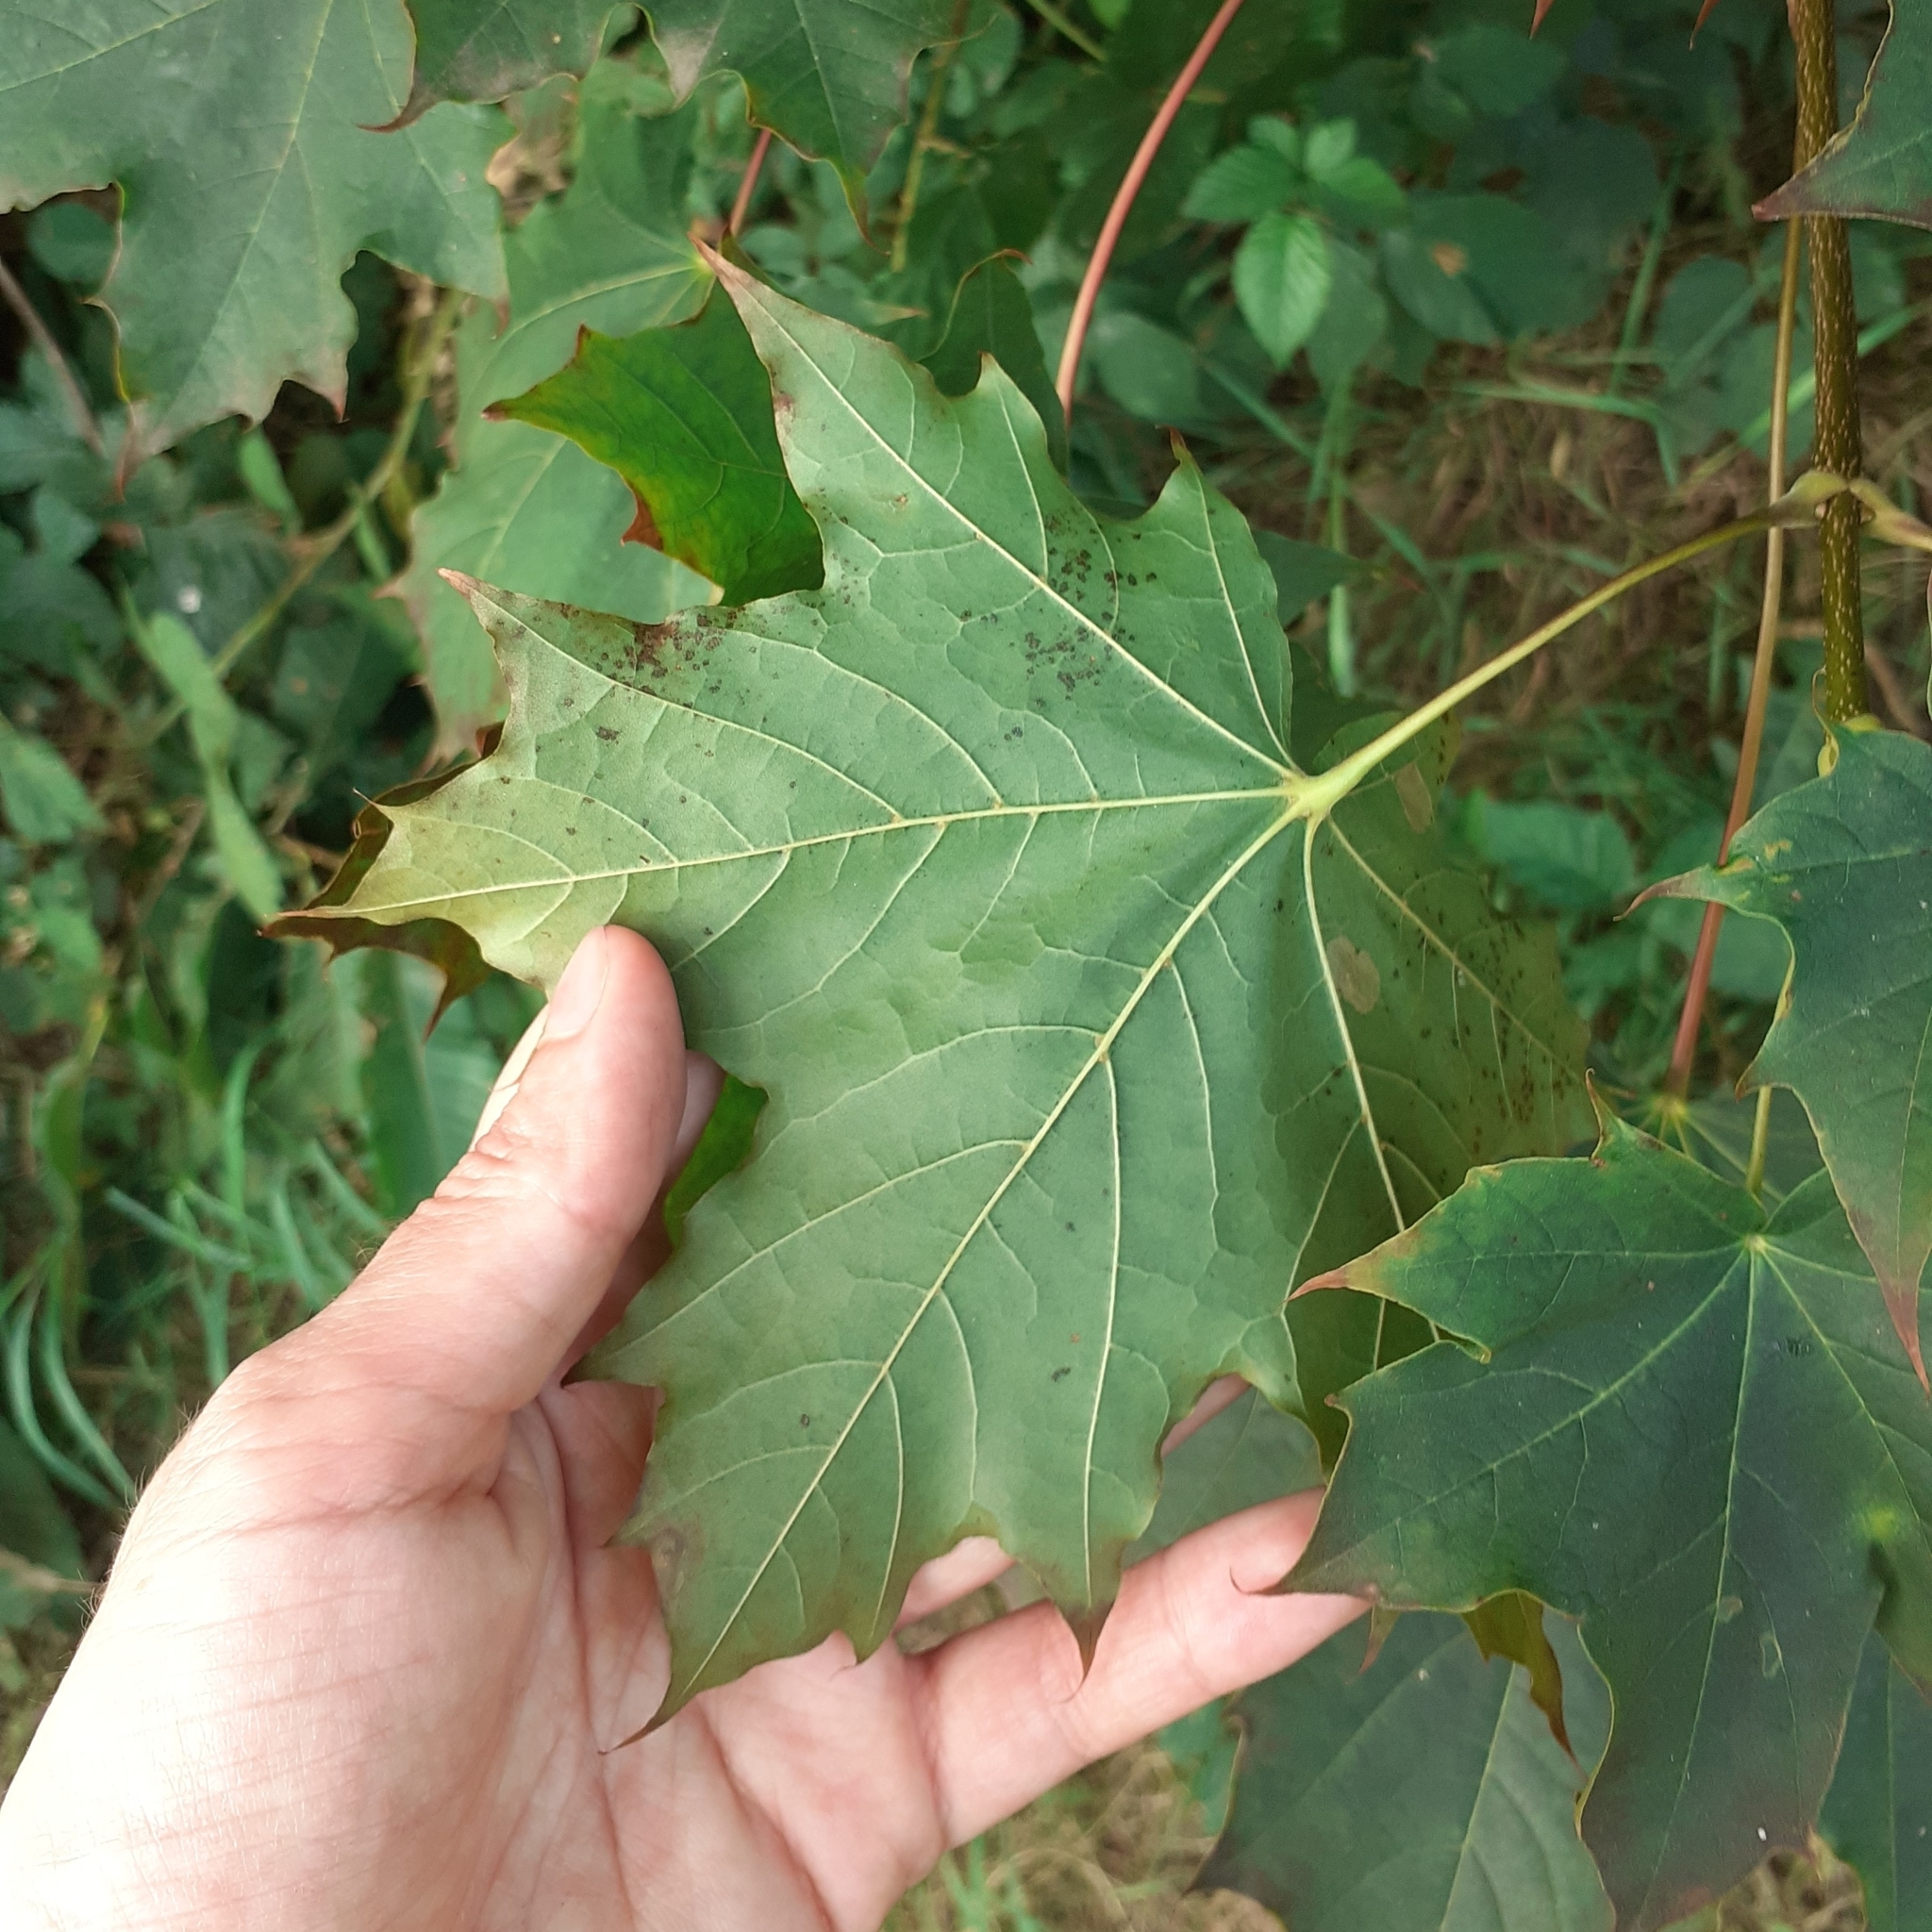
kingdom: Plantae
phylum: Tracheophyta
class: Magnoliopsida
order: Sapindales
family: Sapindaceae
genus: Acer
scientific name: Acer platanoides
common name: Norway maple
